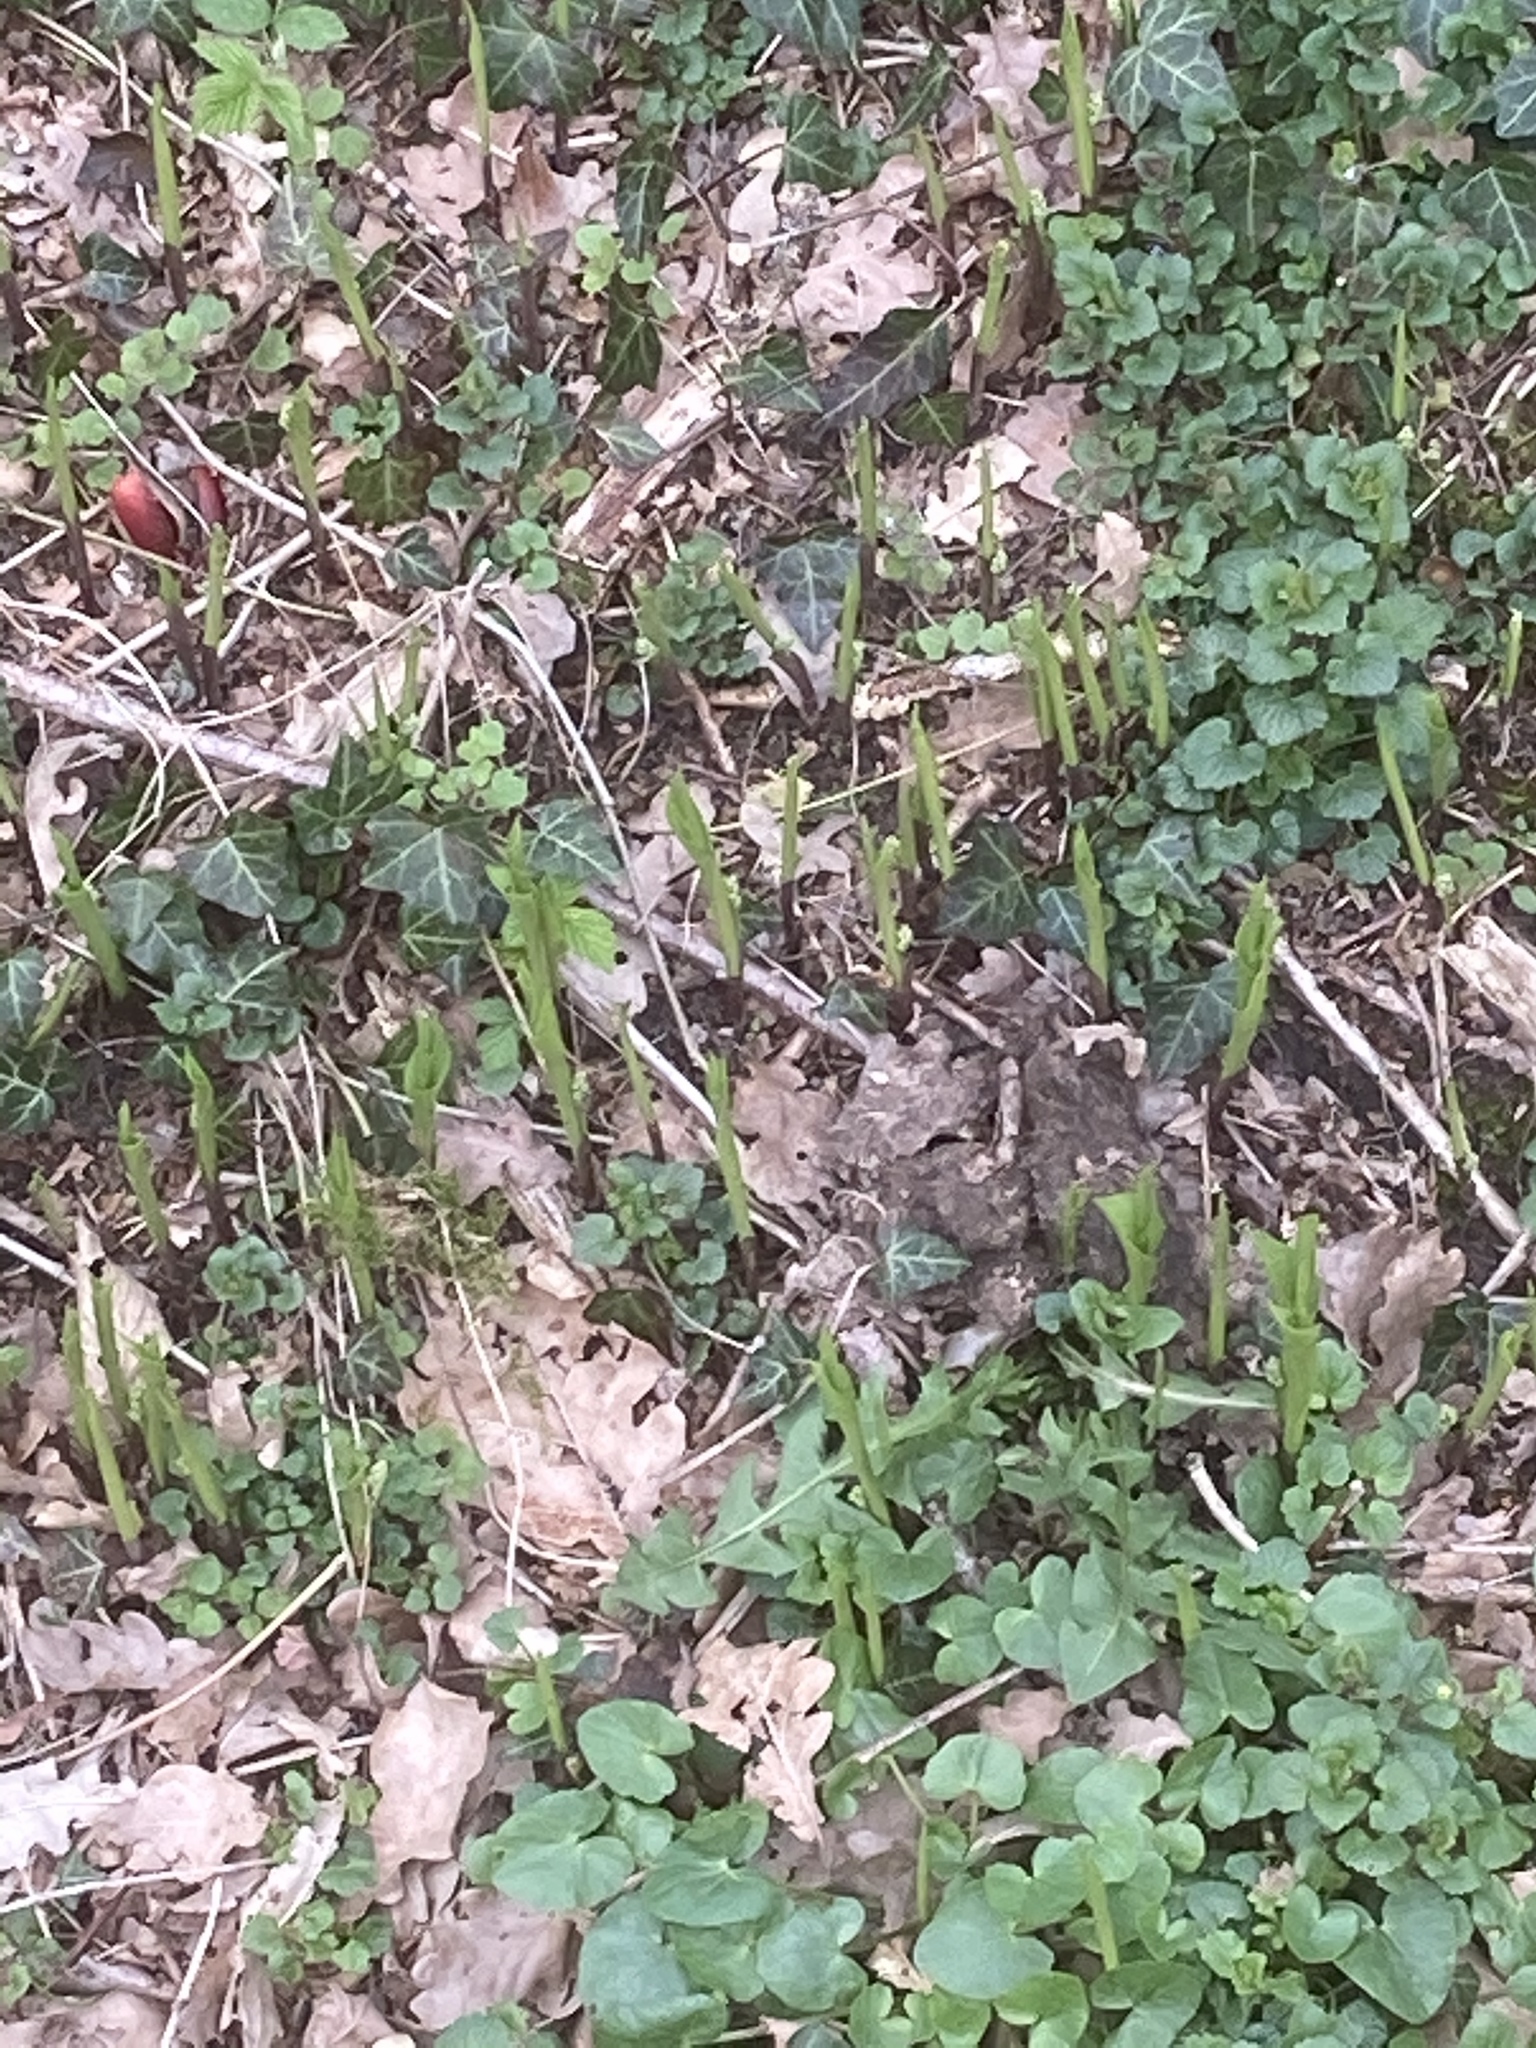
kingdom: Plantae
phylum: Tracheophyta
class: Liliopsida
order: Asparagales
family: Asparagaceae
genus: Convallaria
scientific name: Convallaria majalis
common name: Lily-of-the-valley
